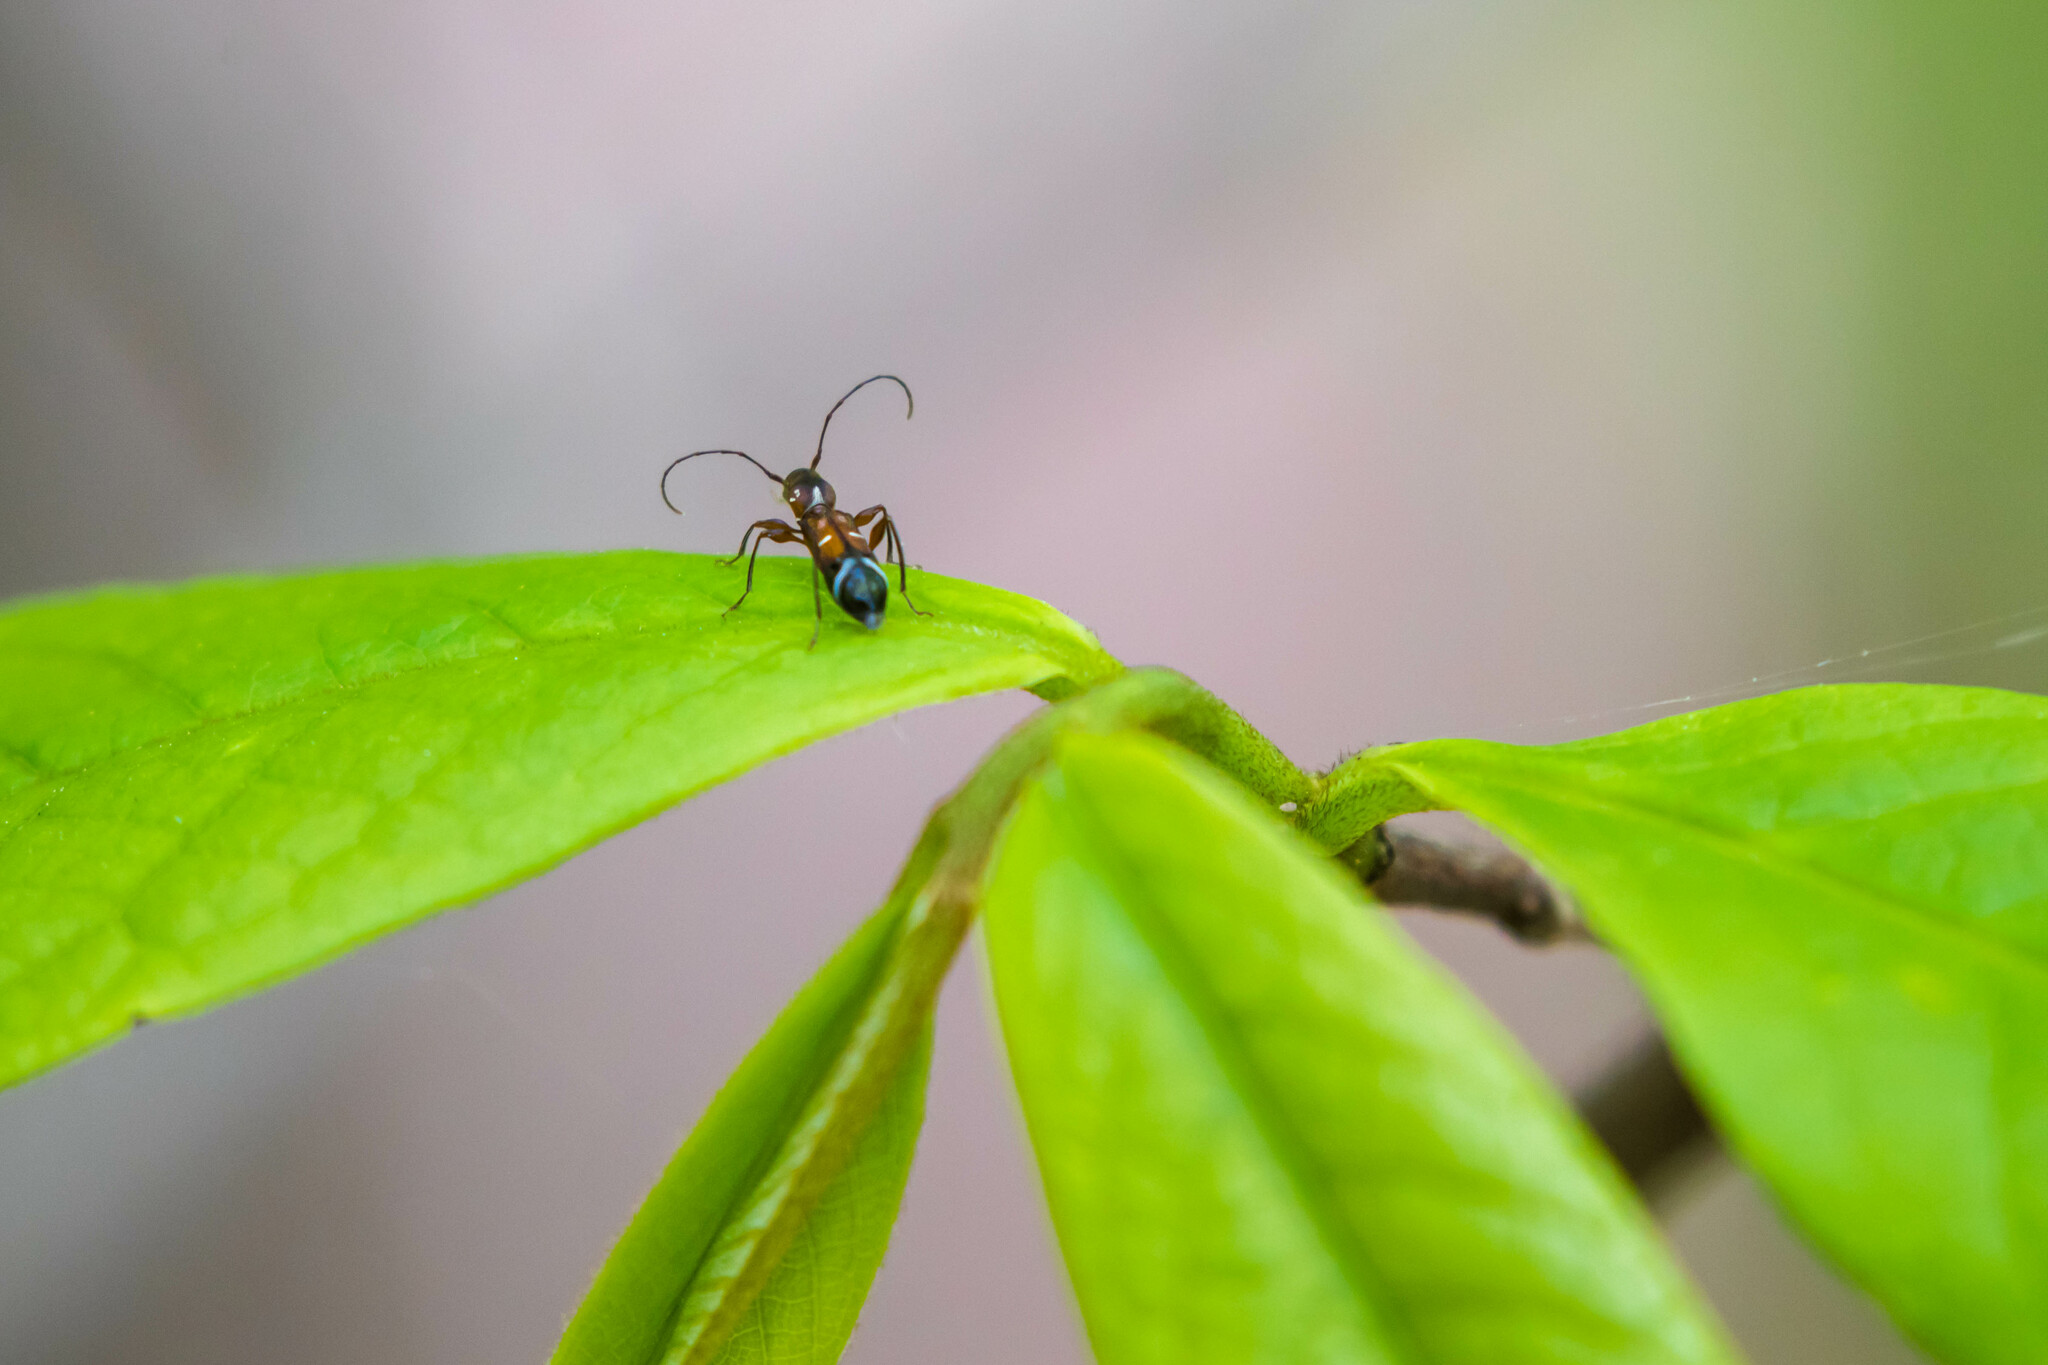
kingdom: Animalia
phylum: Arthropoda
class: Insecta
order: Coleoptera
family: Cerambycidae
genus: Euderces
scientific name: Euderces pini
